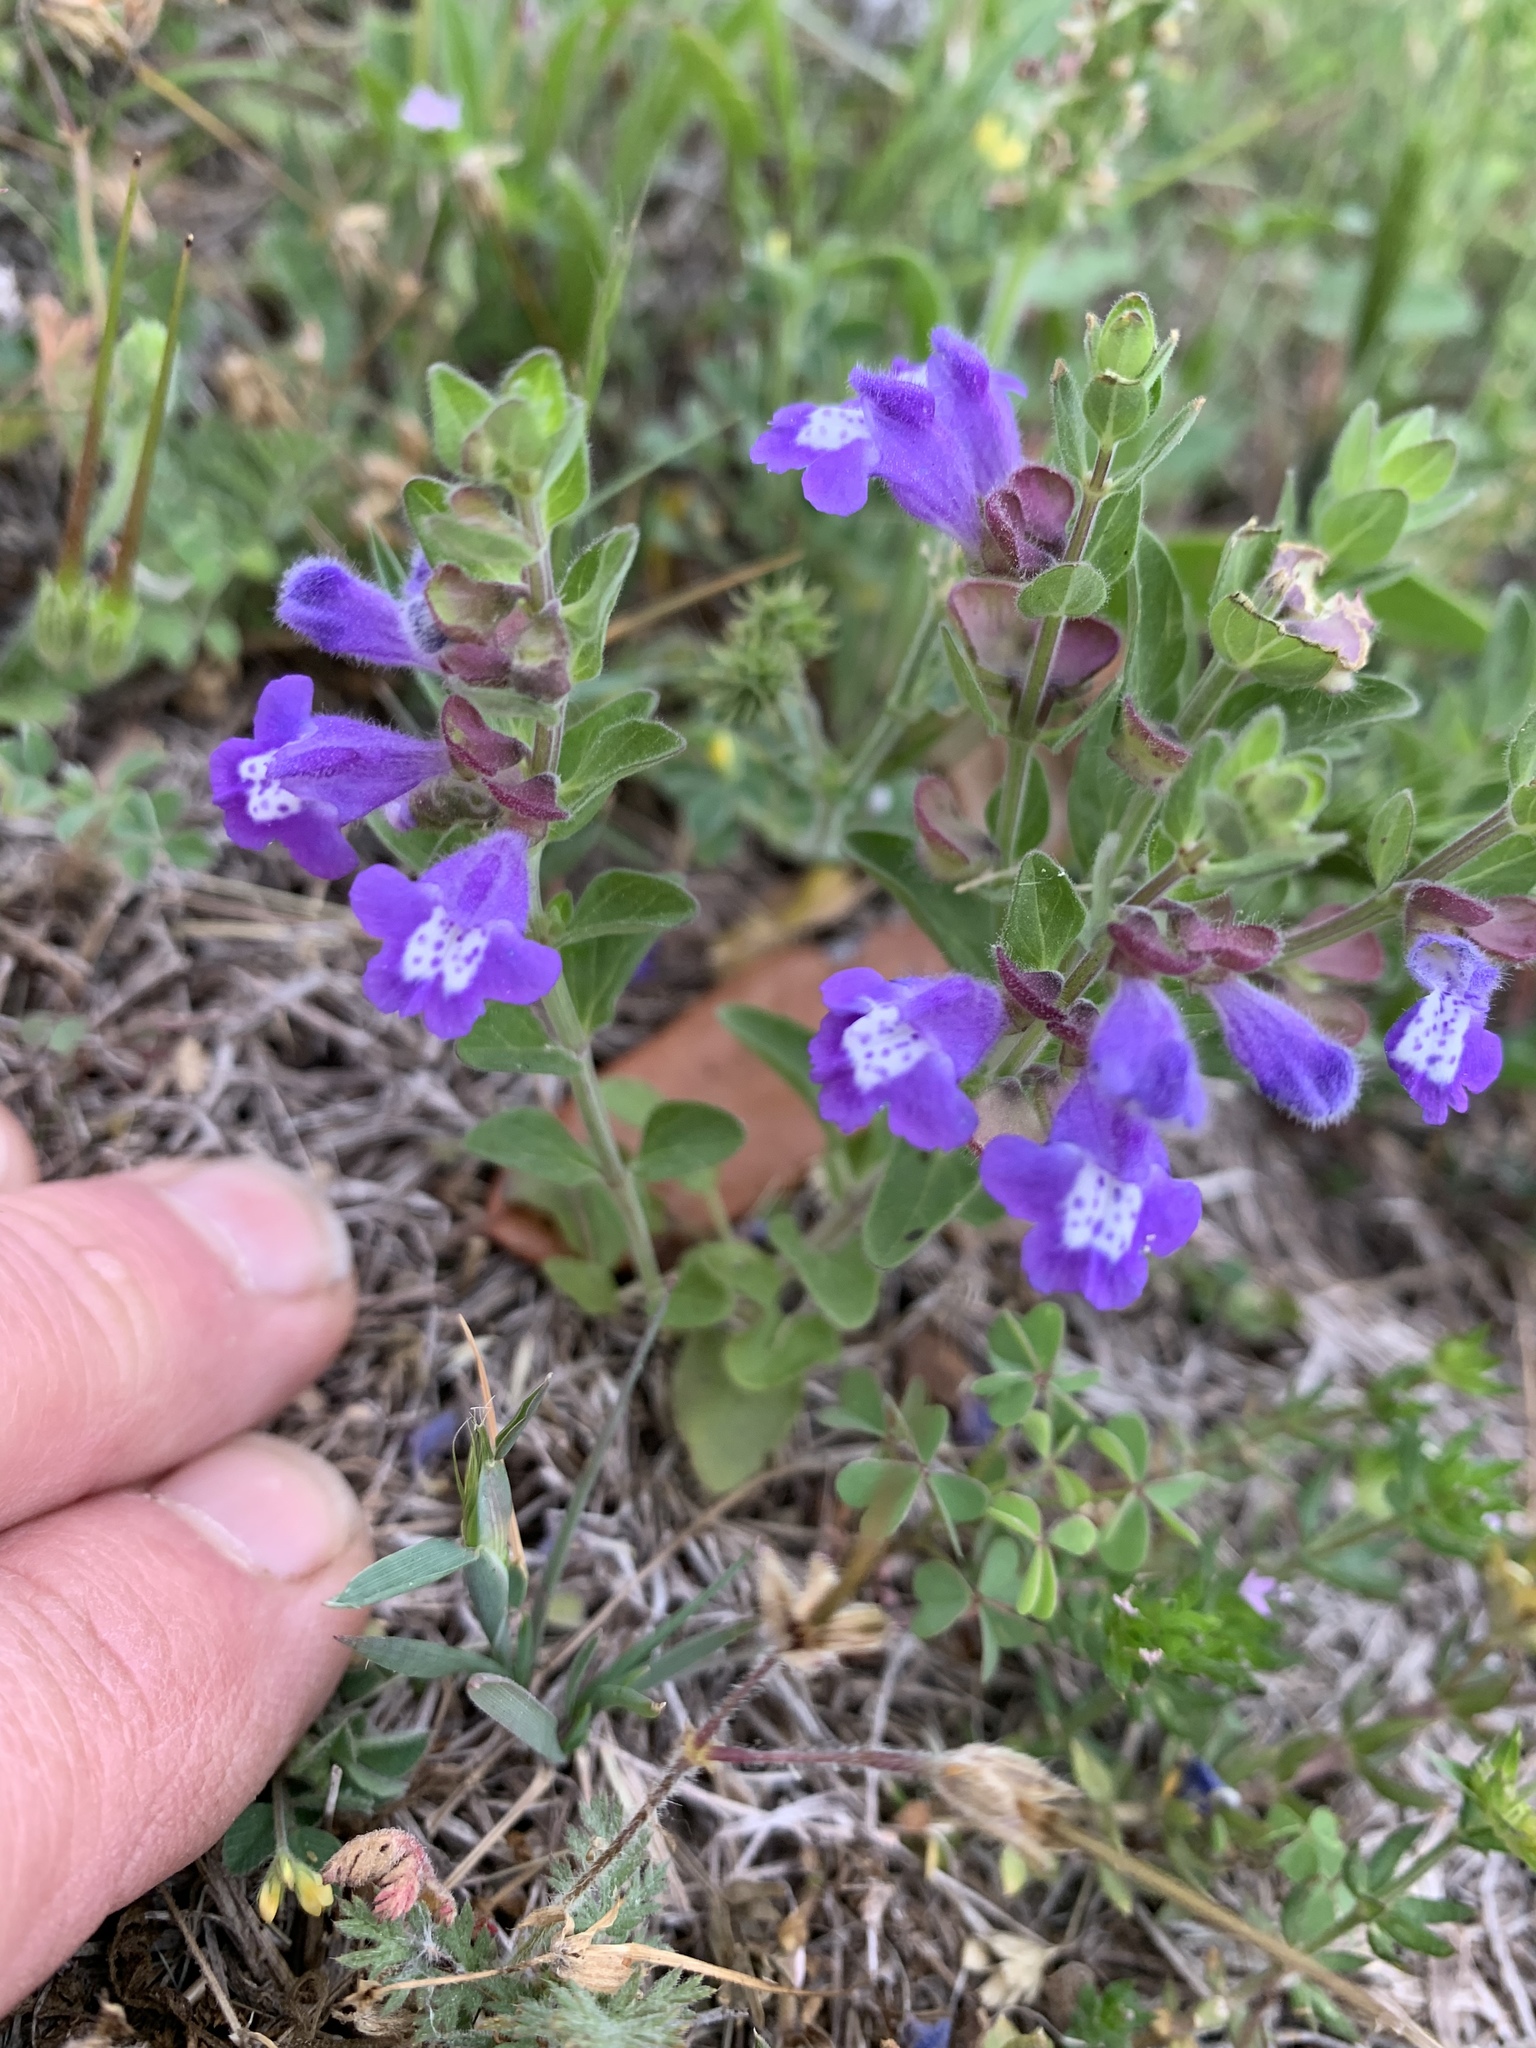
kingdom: Plantae
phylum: Tracheophyta
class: Magnoliopsida
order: Lamiales
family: Lamiaceae
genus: Scutellaria
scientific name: Scutellaria drummondii
